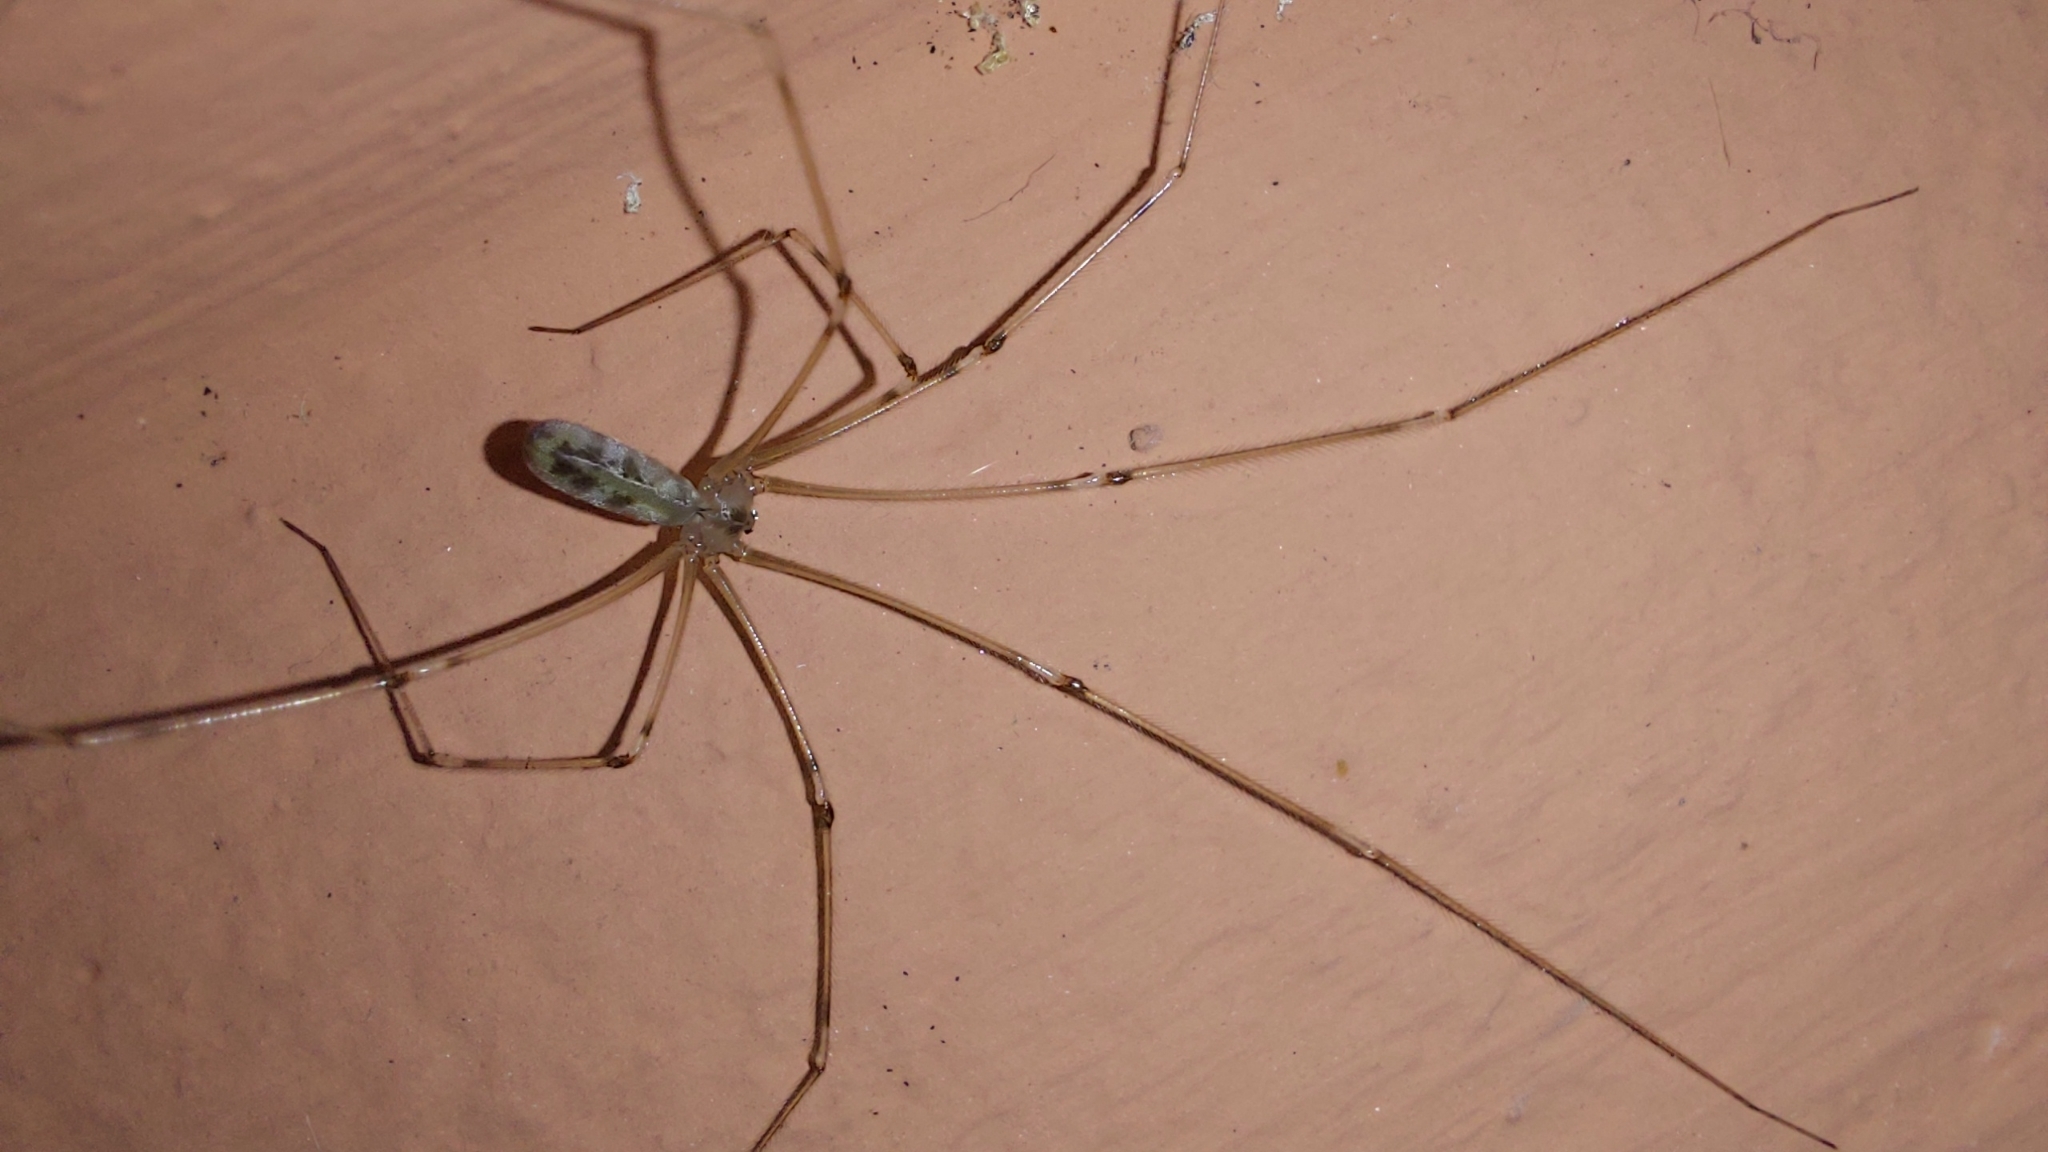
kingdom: Animalia
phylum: Arthropoda
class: Arachnida
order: Araneae
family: Pholcidae
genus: Pholcus
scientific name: Pholcus phalangioides
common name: Longbodied cellar spider
